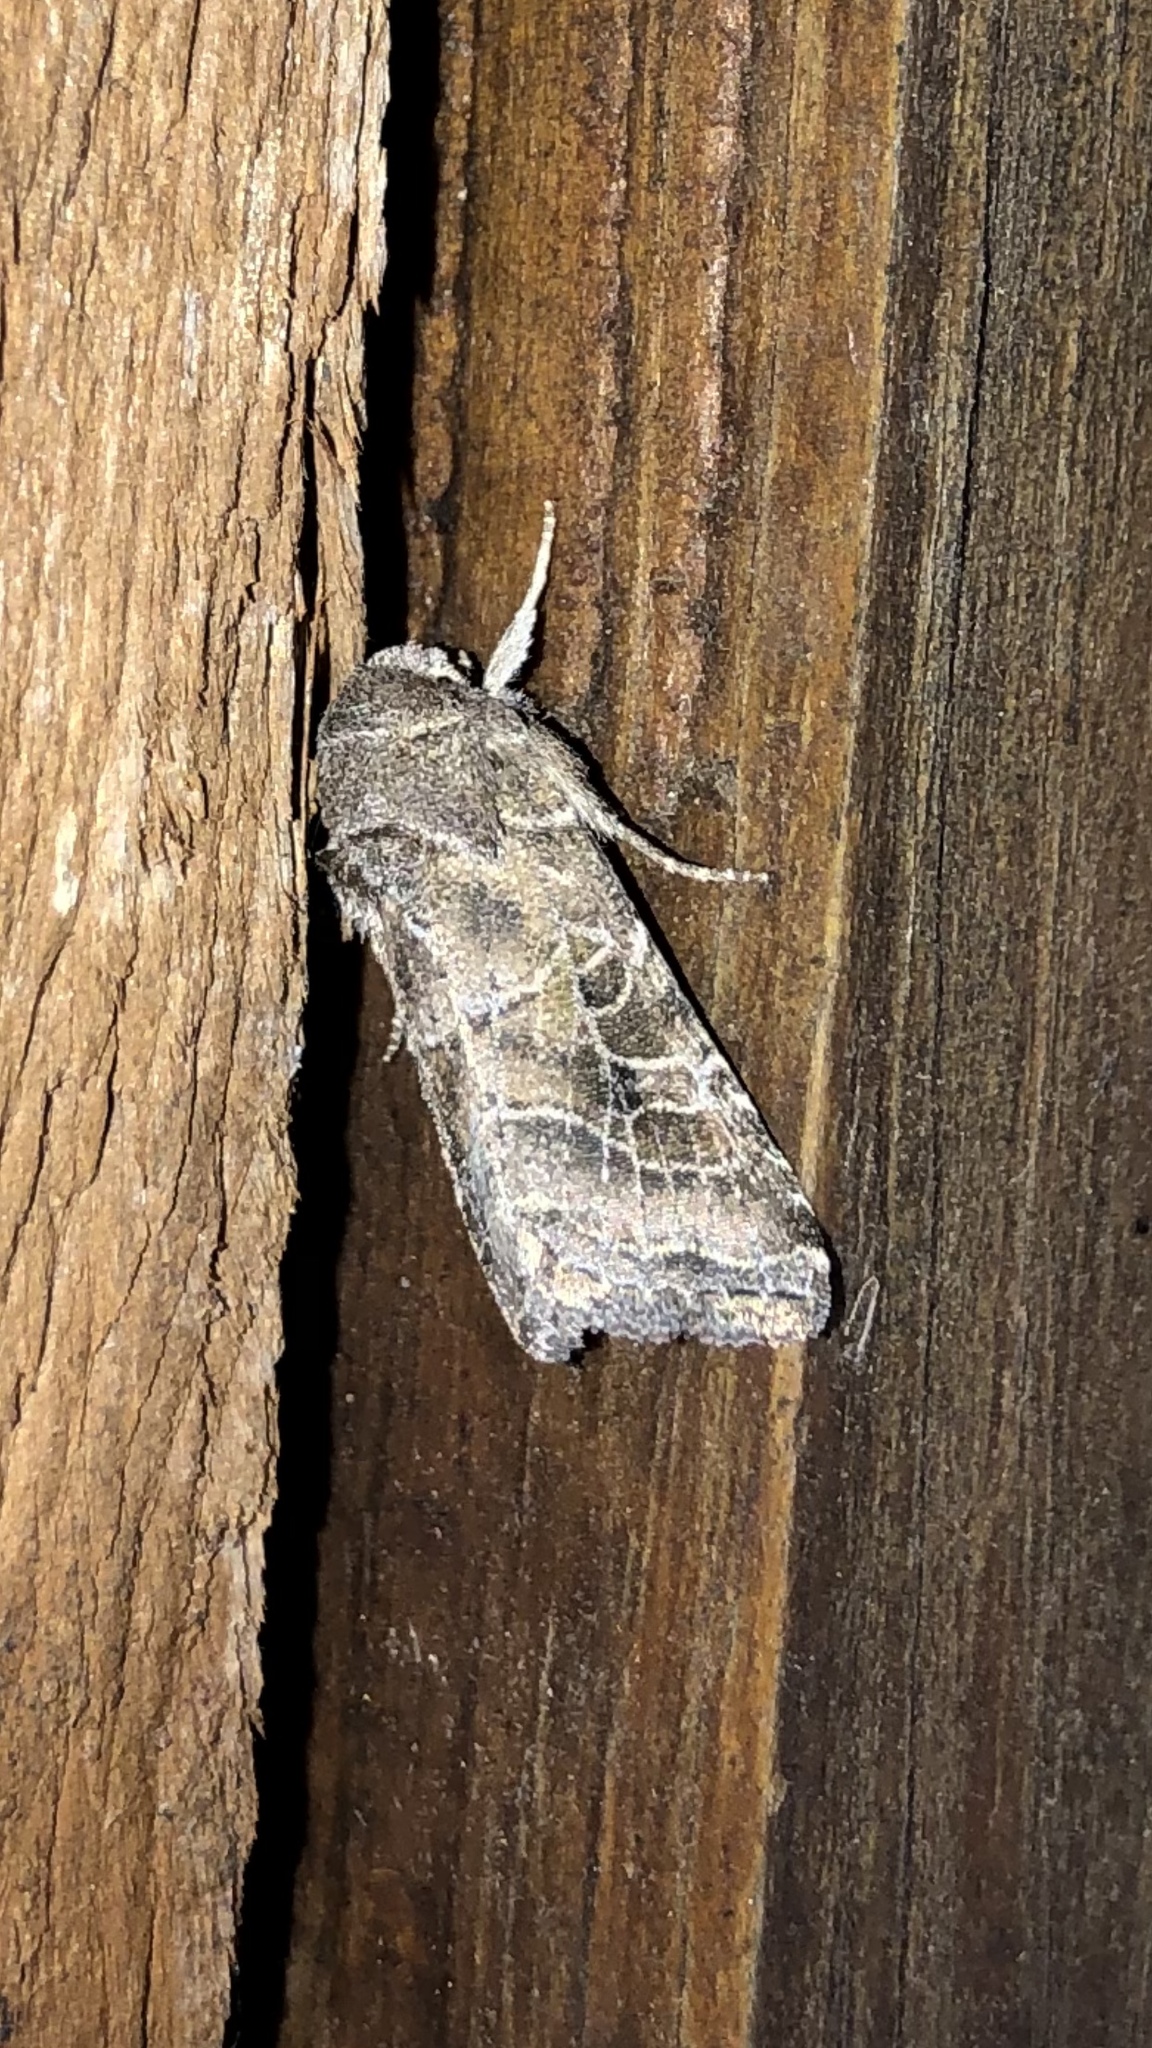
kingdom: Animalia
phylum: Arthropoda
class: Insecta
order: Lepidoptera
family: Noctuidae
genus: Lacinipolia
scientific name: Lacinipolia erecta
